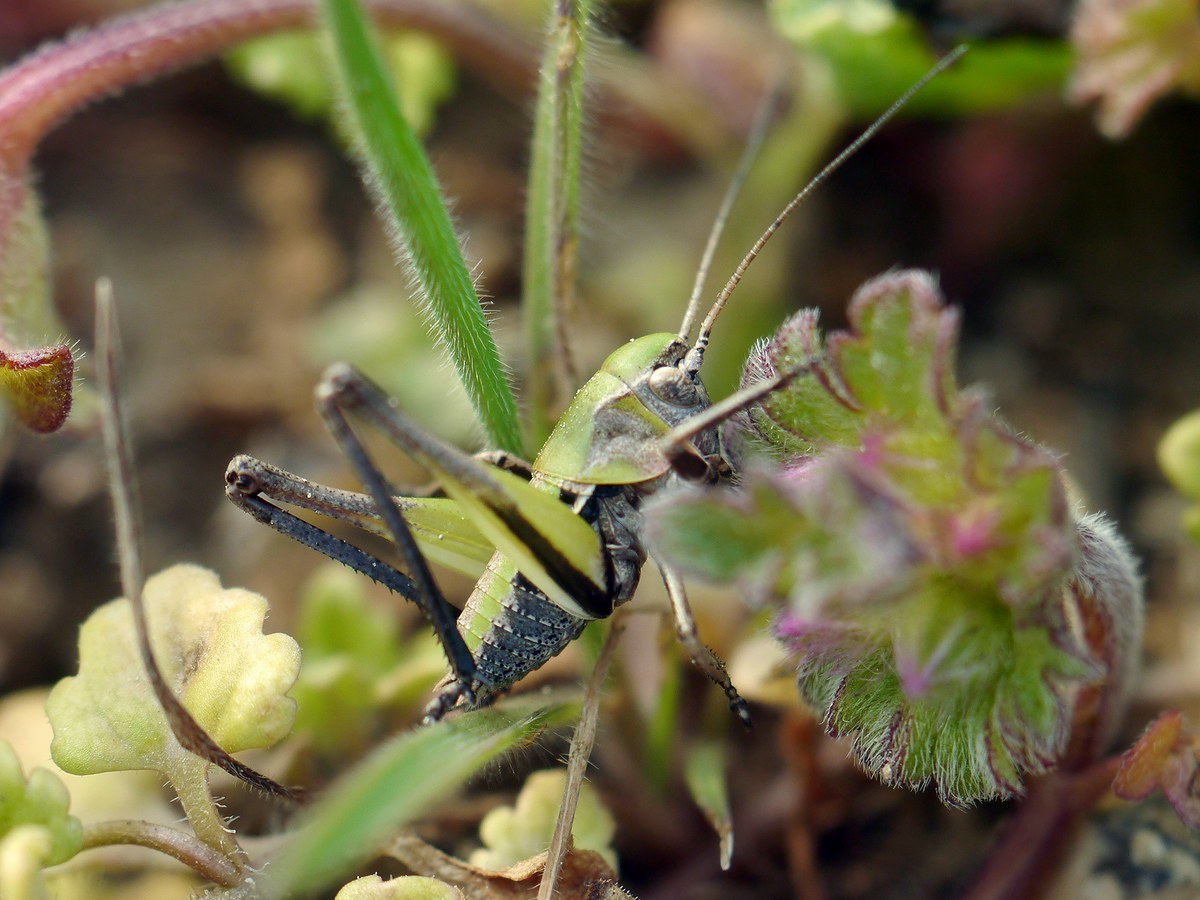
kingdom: Animalia
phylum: Arthropoda
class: Insecta
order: Orthoptera
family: Tettigoniidae
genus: Decticus
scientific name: Decticus verrucivorus
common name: Wart-biter
